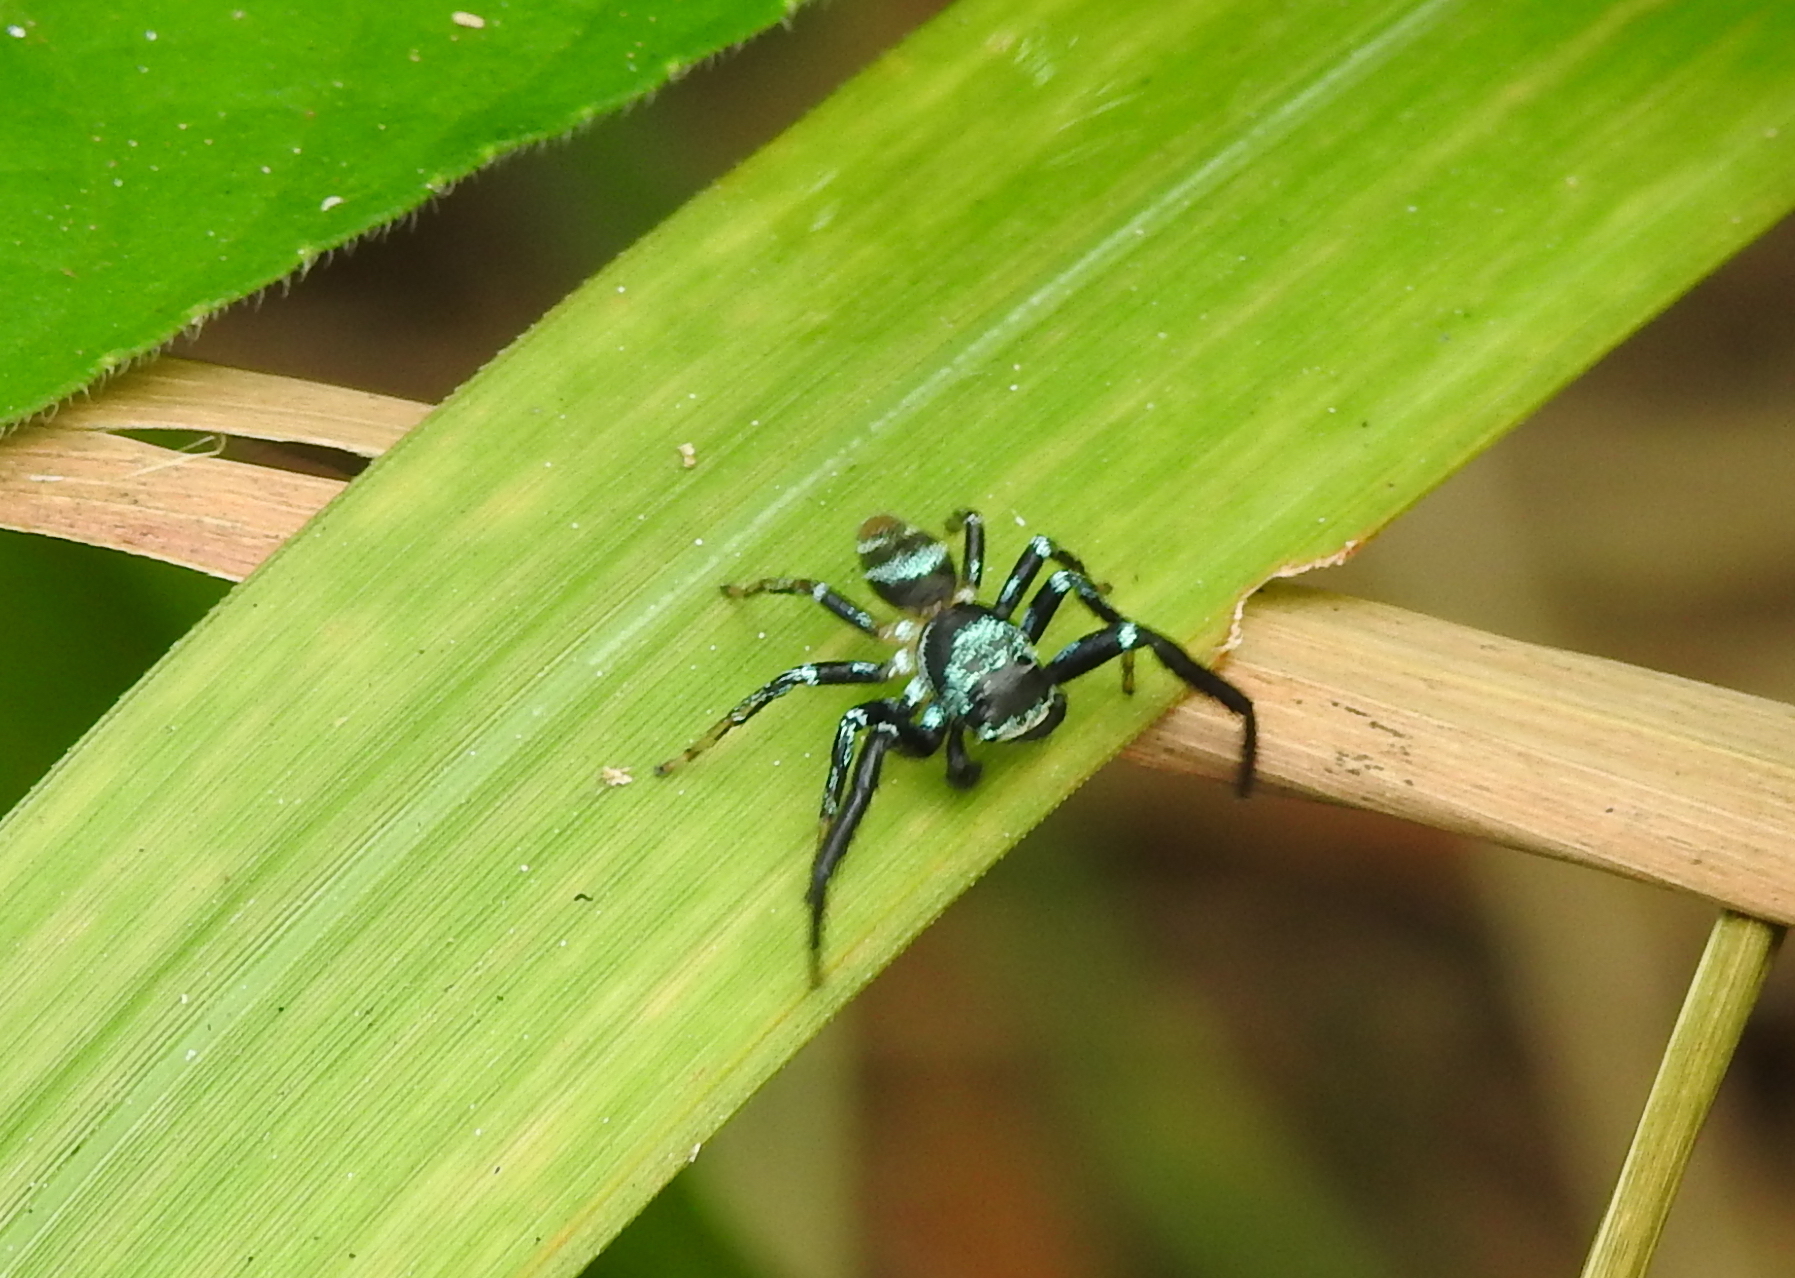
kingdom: Animalia
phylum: Arthropoda
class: Arachnida
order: Araneae
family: Salticidae
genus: Thiania
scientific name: Thiania bhamoensis
